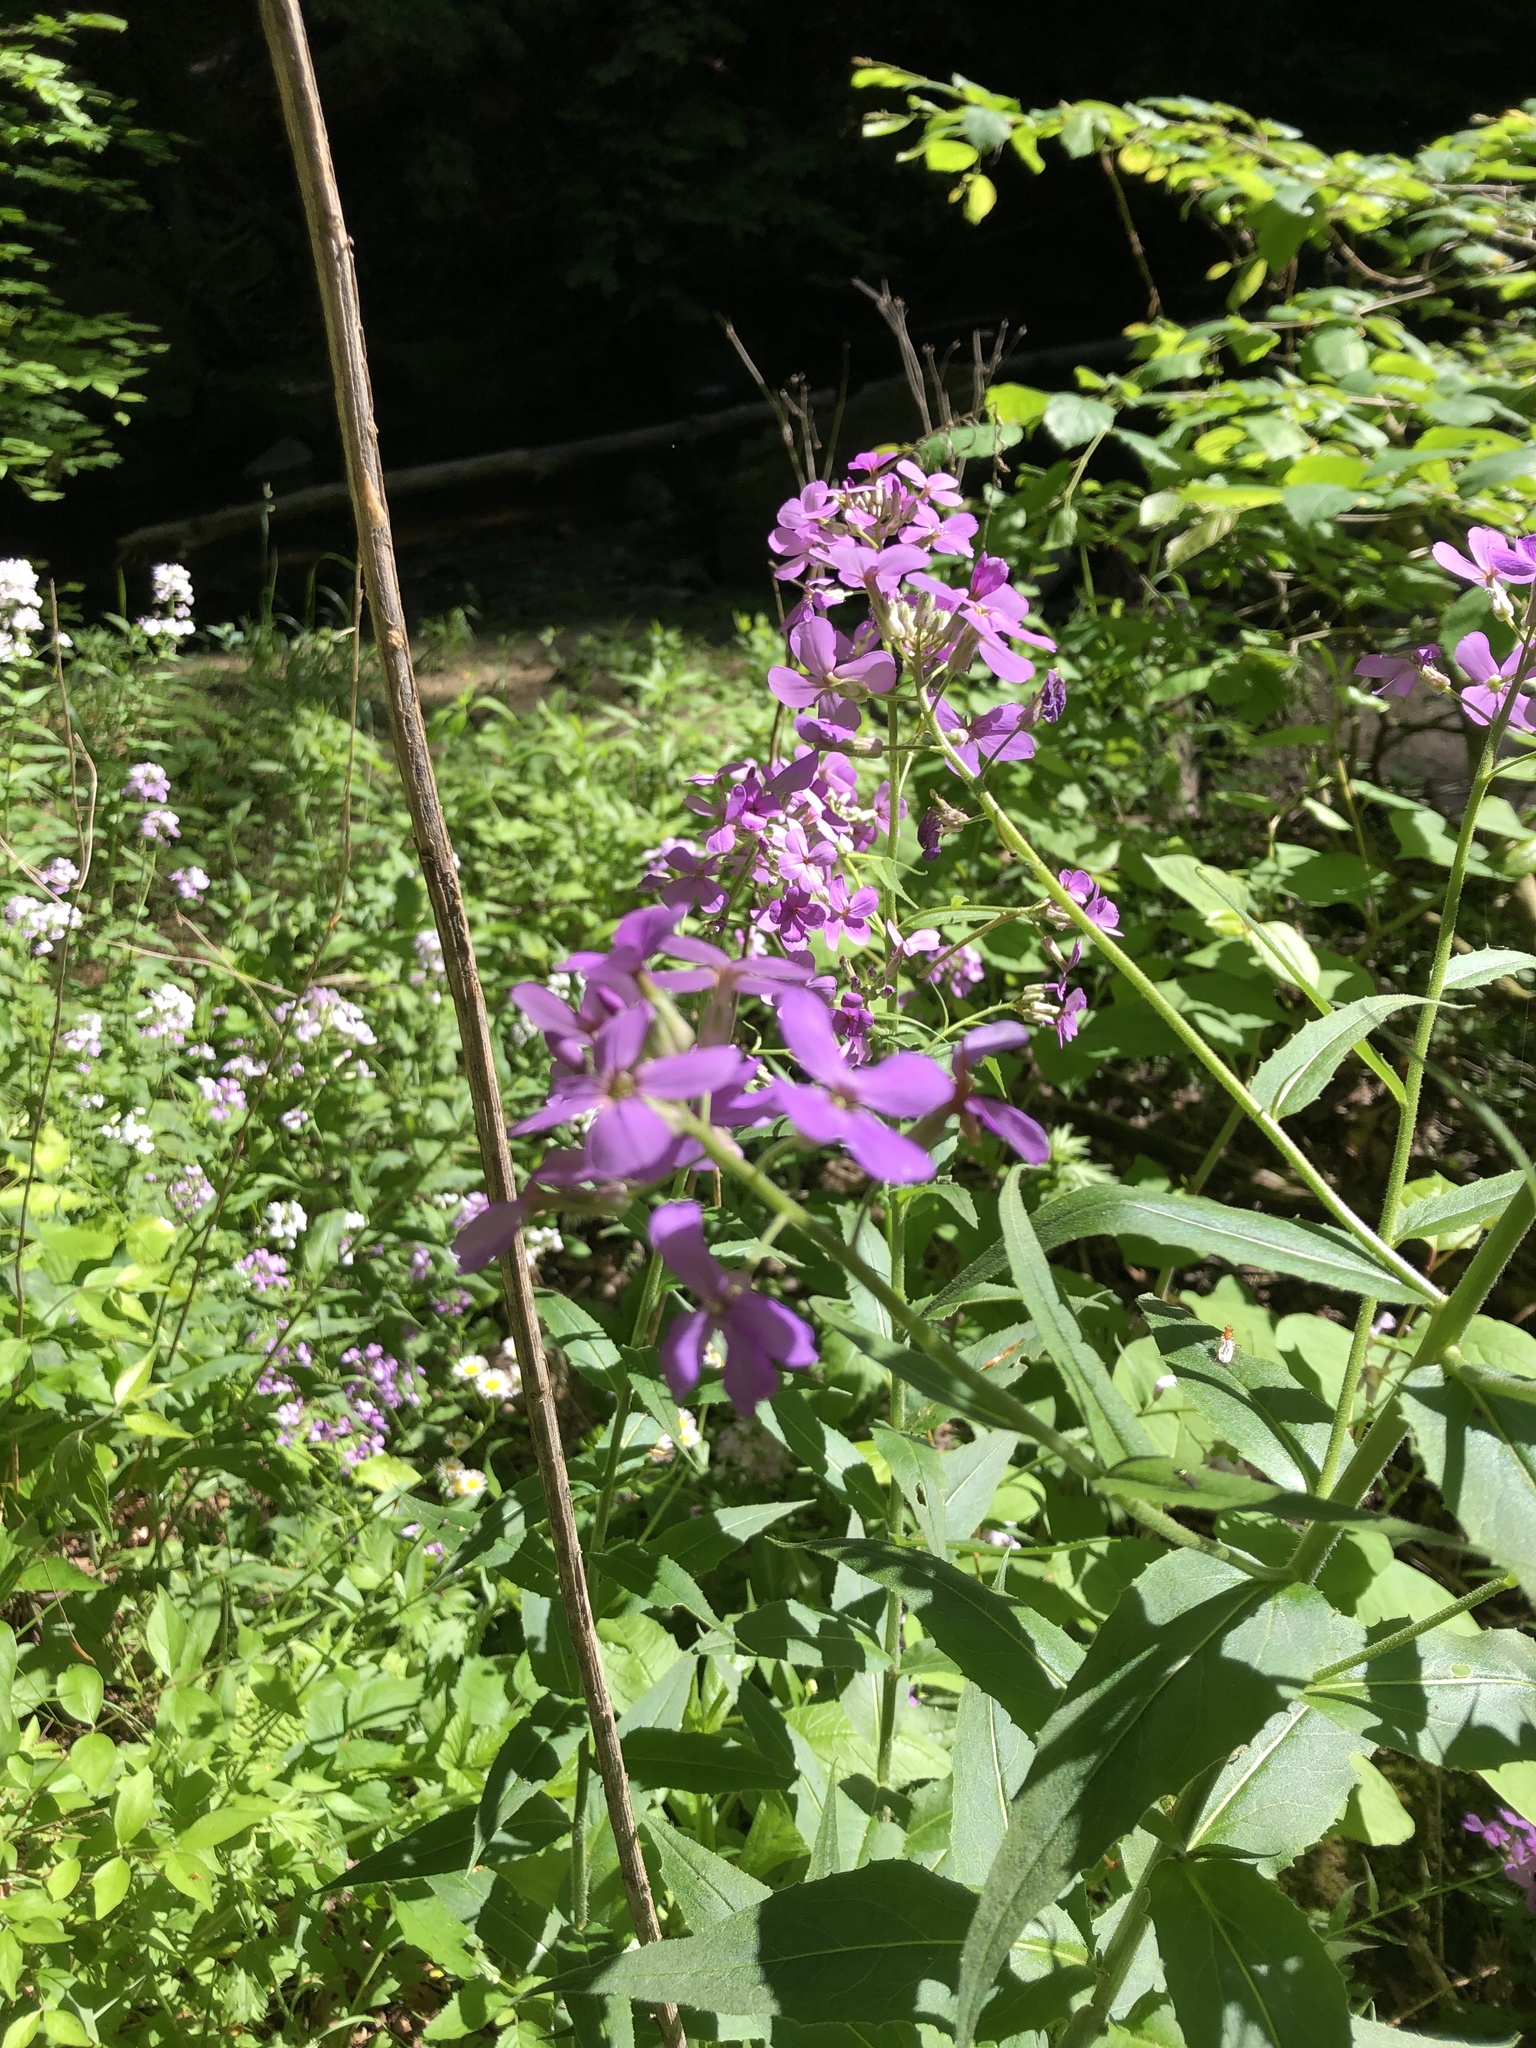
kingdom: Plantae
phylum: Tracheophyta
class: Magnoliopsida
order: Brassicales
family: Brassicaceae
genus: Hesperis
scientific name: Hesperis matronalis
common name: Dame's-violet
